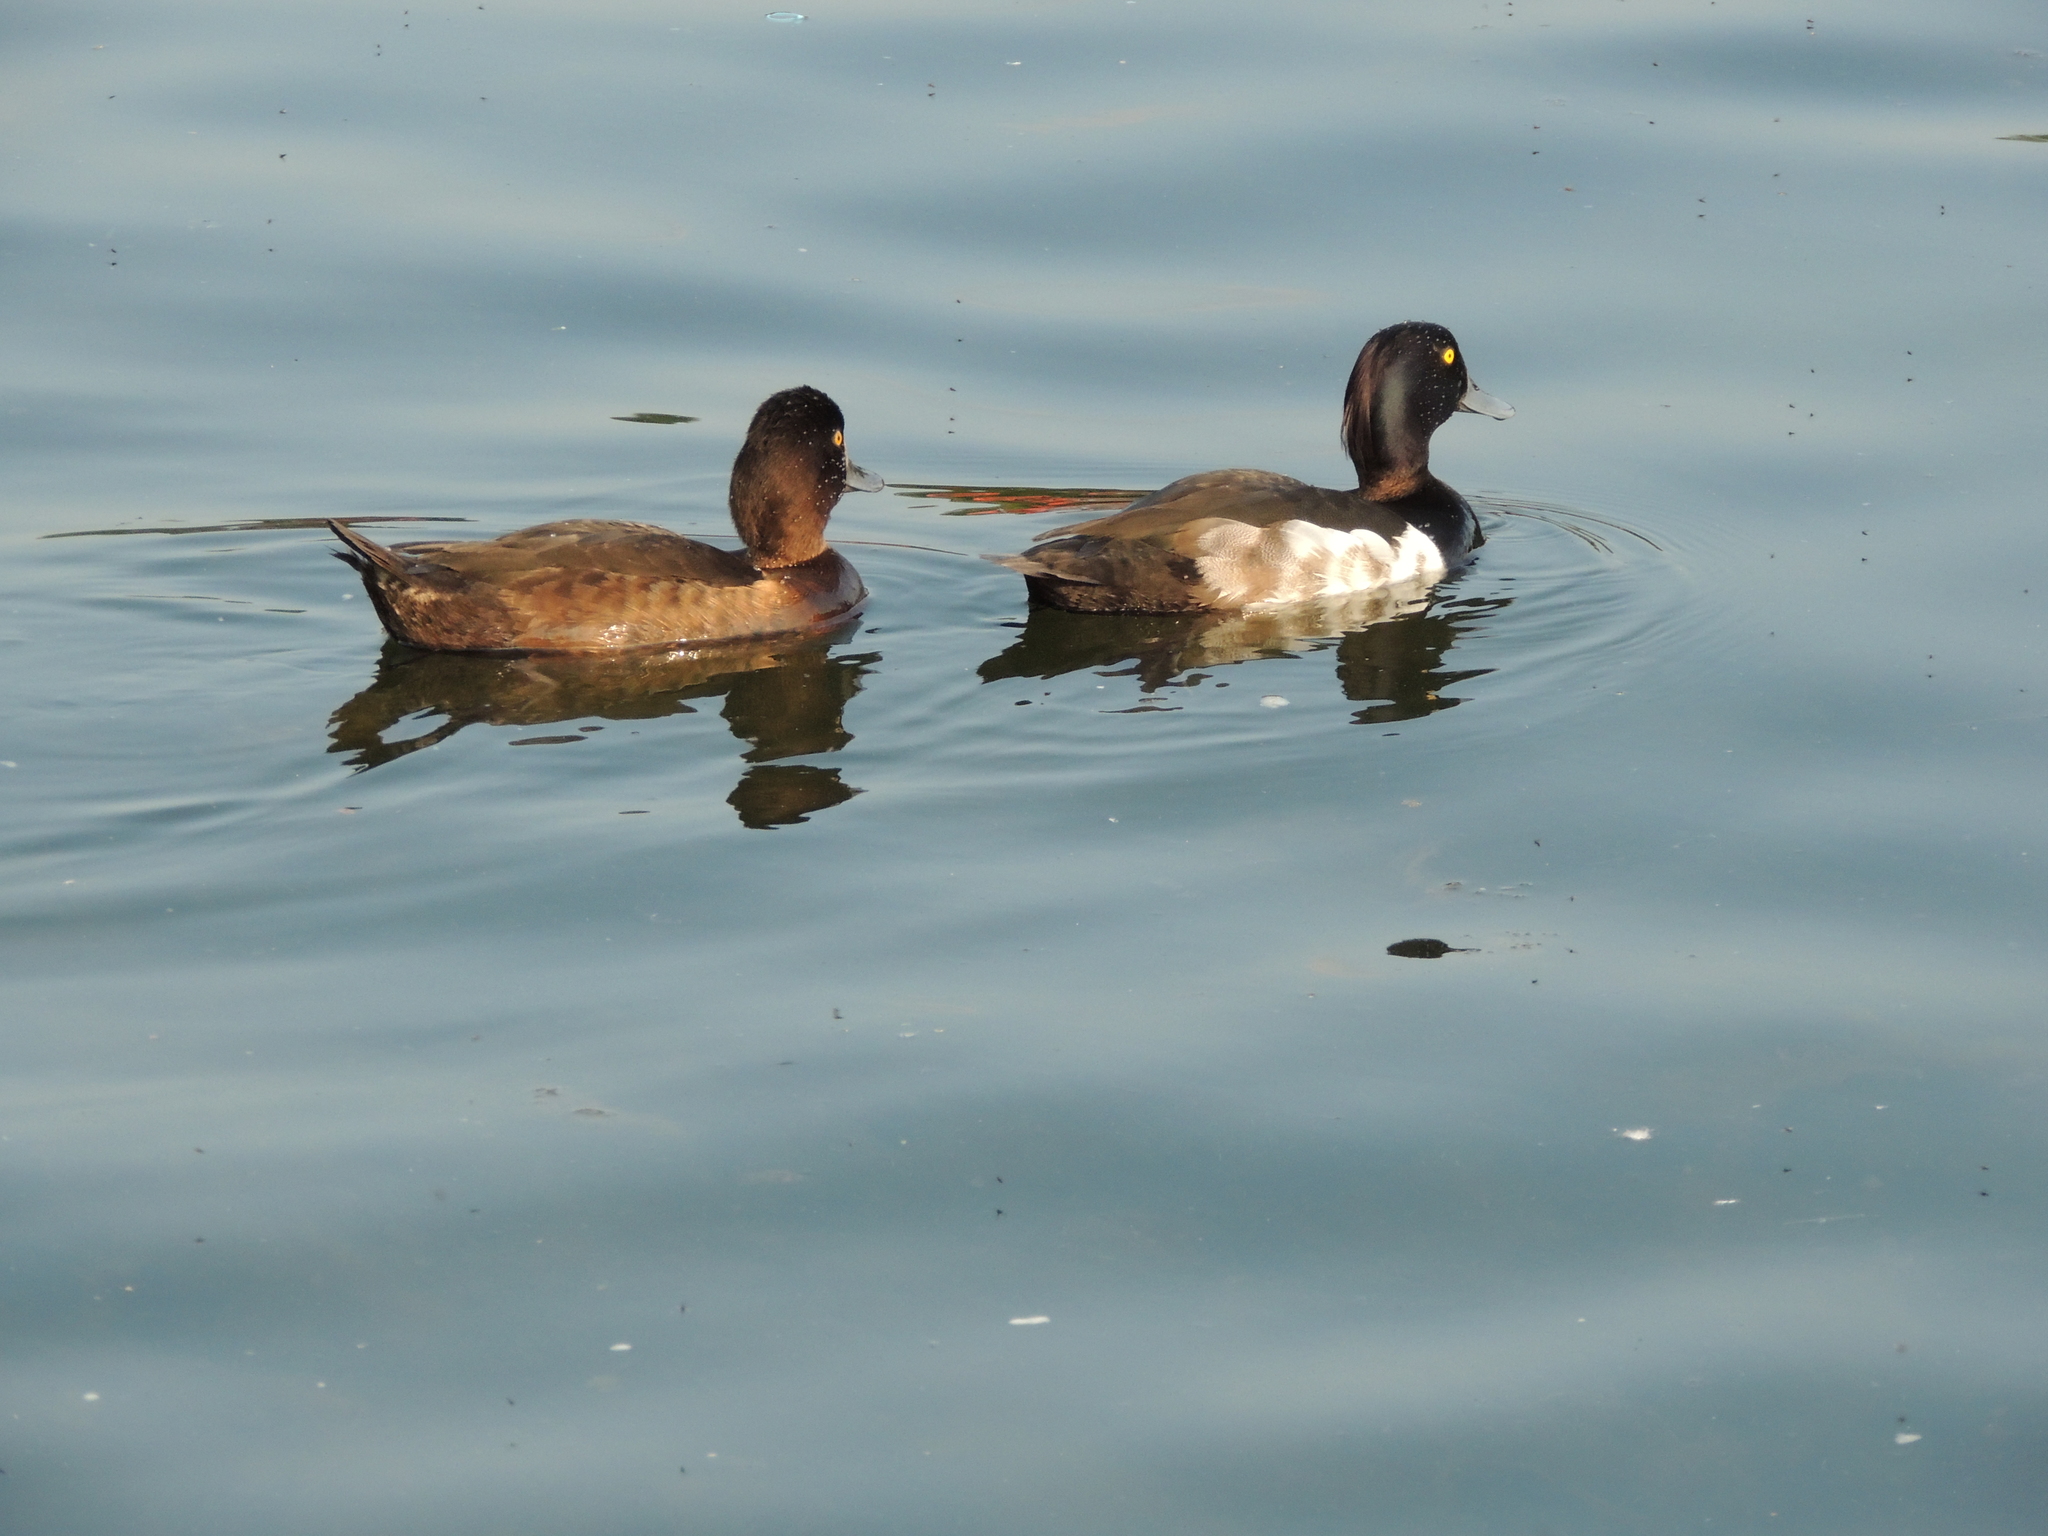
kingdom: Animalia
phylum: Chordata
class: Aves
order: Anseriformes
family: Anatidae
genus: Aythya
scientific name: Aythya fuligula
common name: Tufted duck
